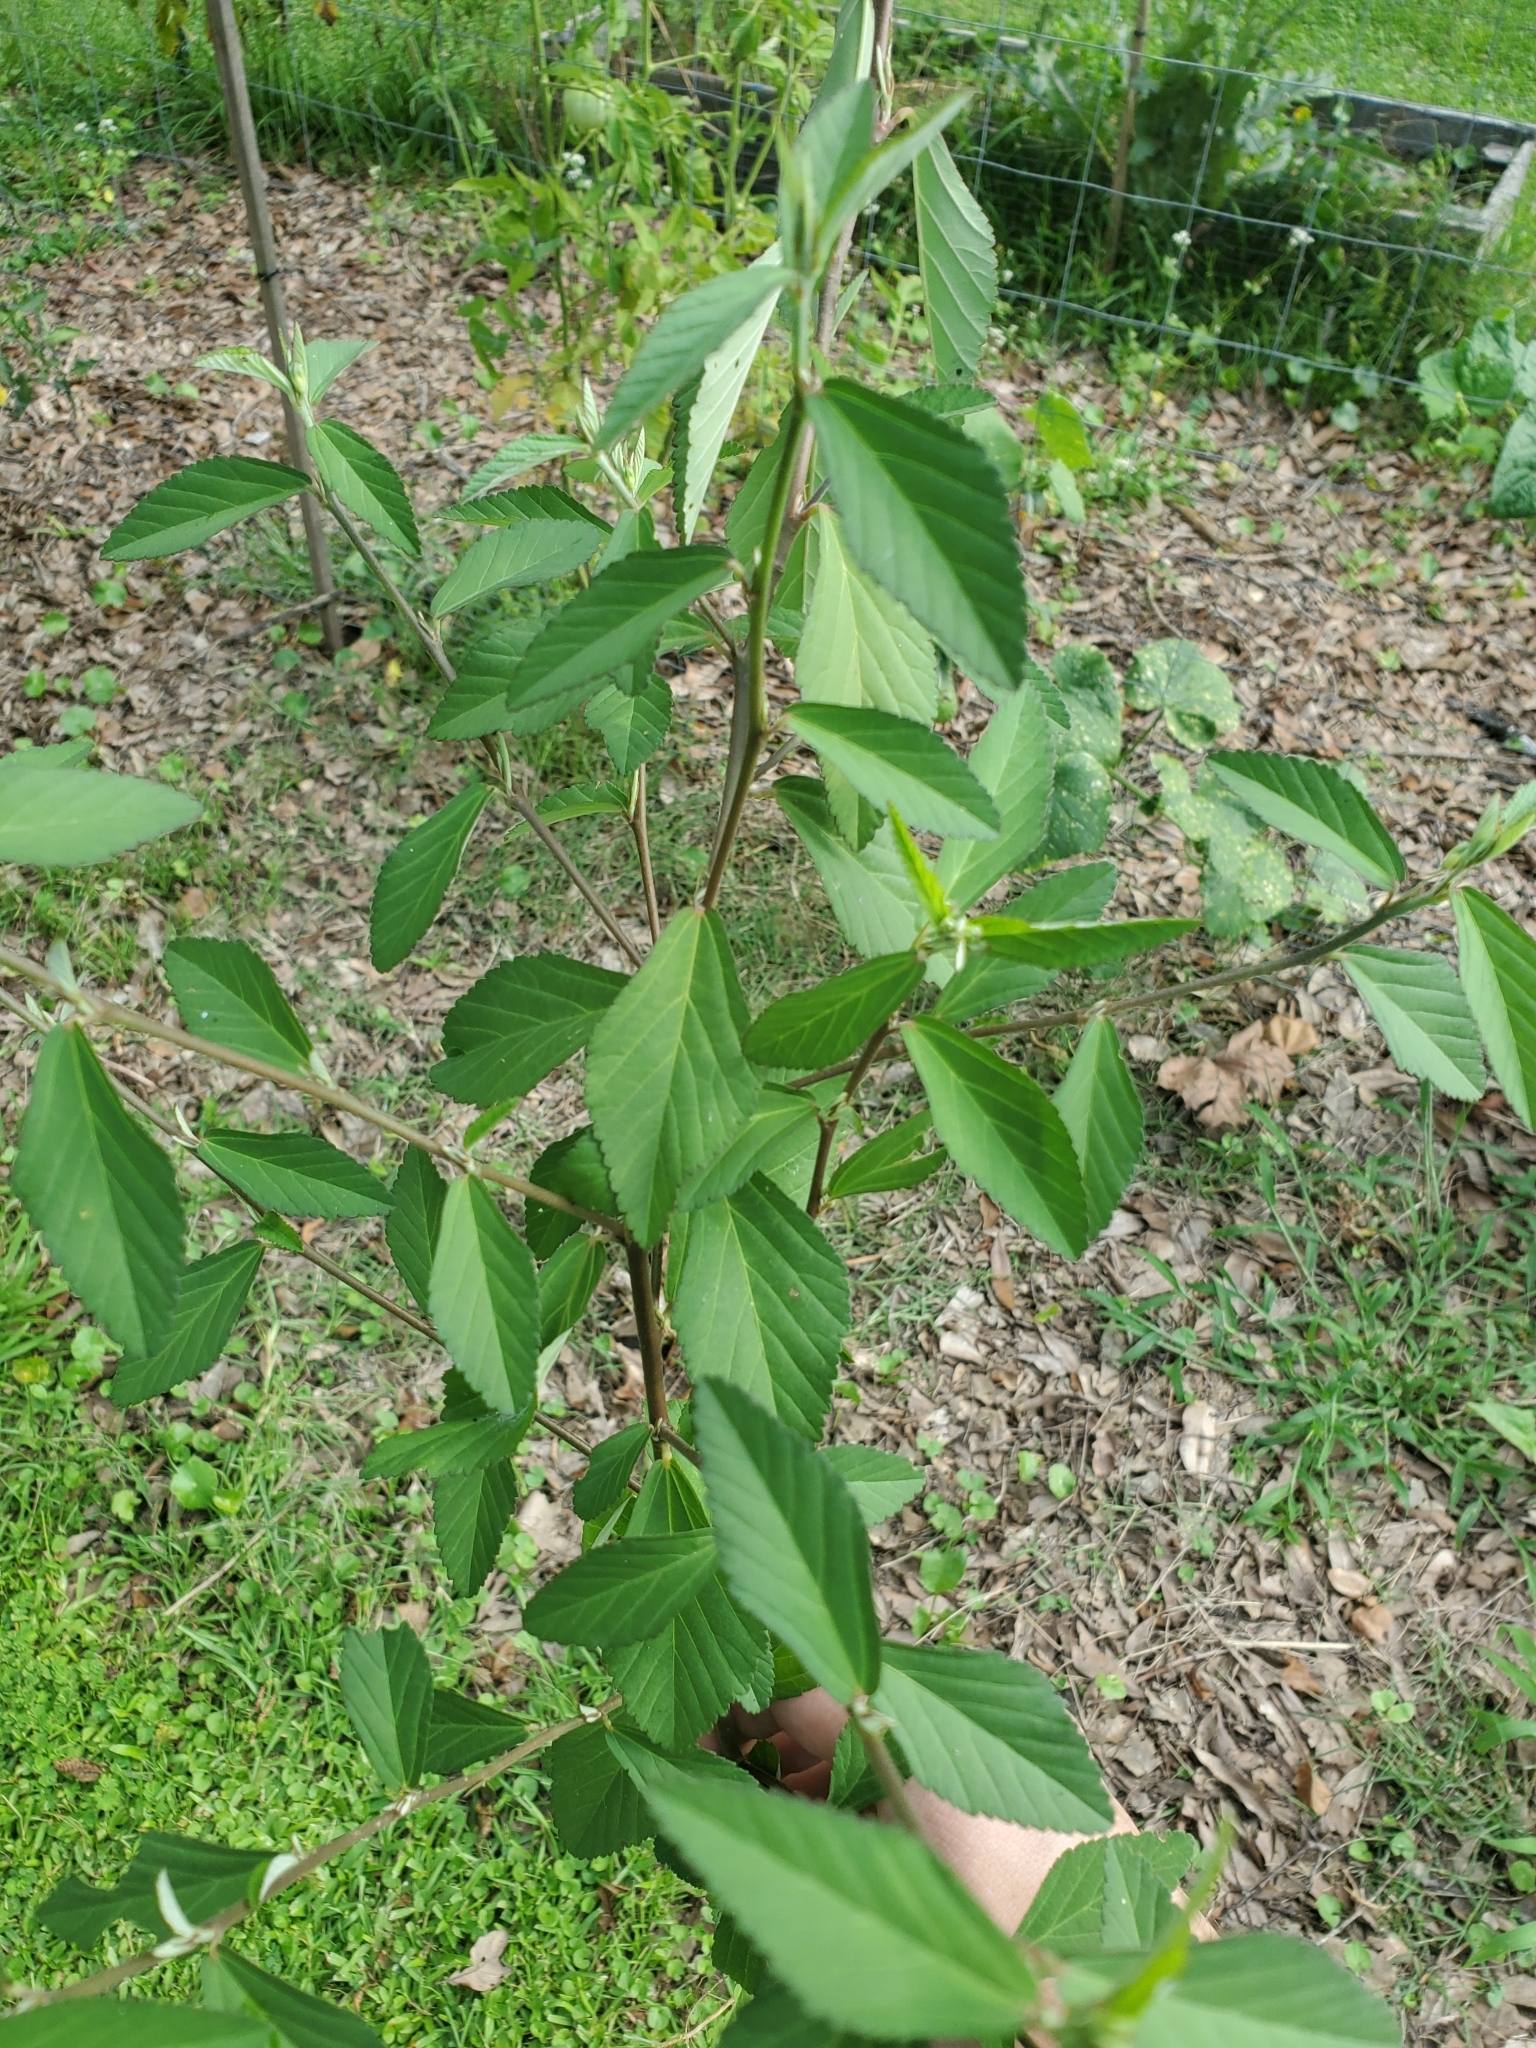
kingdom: Plantae
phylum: Tracheophyta
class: Magnoliopsida
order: Malvales
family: Malvaceae
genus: Sida
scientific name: Sida rhombifolia
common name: Queensland-hemp
